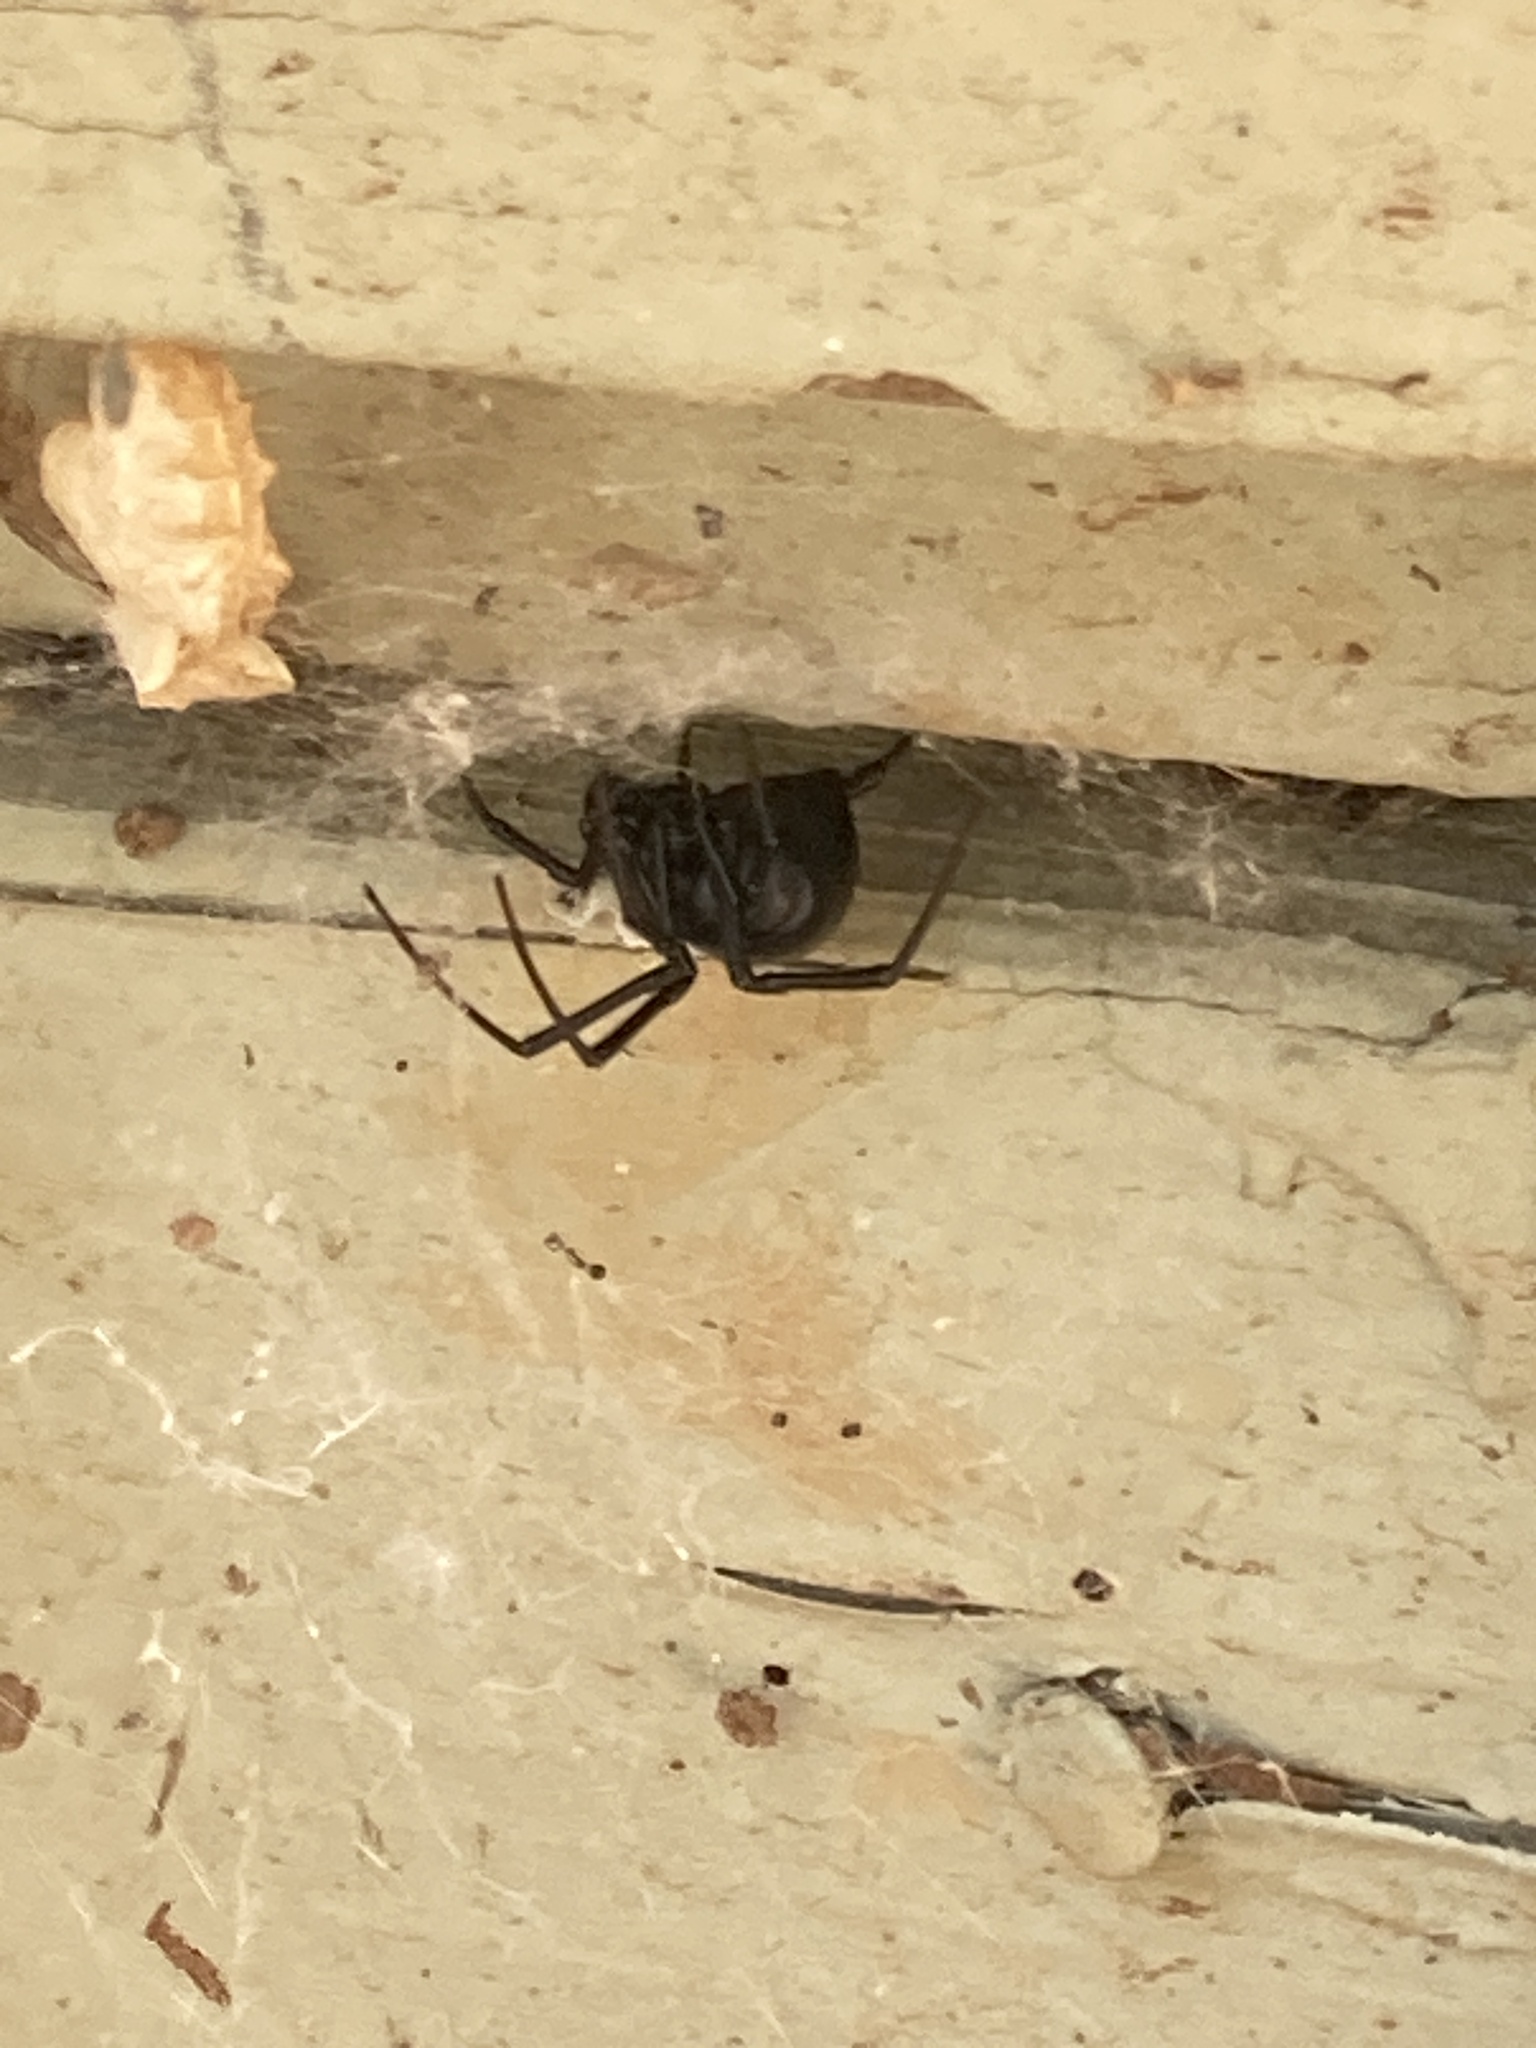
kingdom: Animalia
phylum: Arthropoda
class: Arachnida
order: Araneae
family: Theridiidae
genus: Latrodectus
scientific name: Latrodectus hesperus
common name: Western black widow
